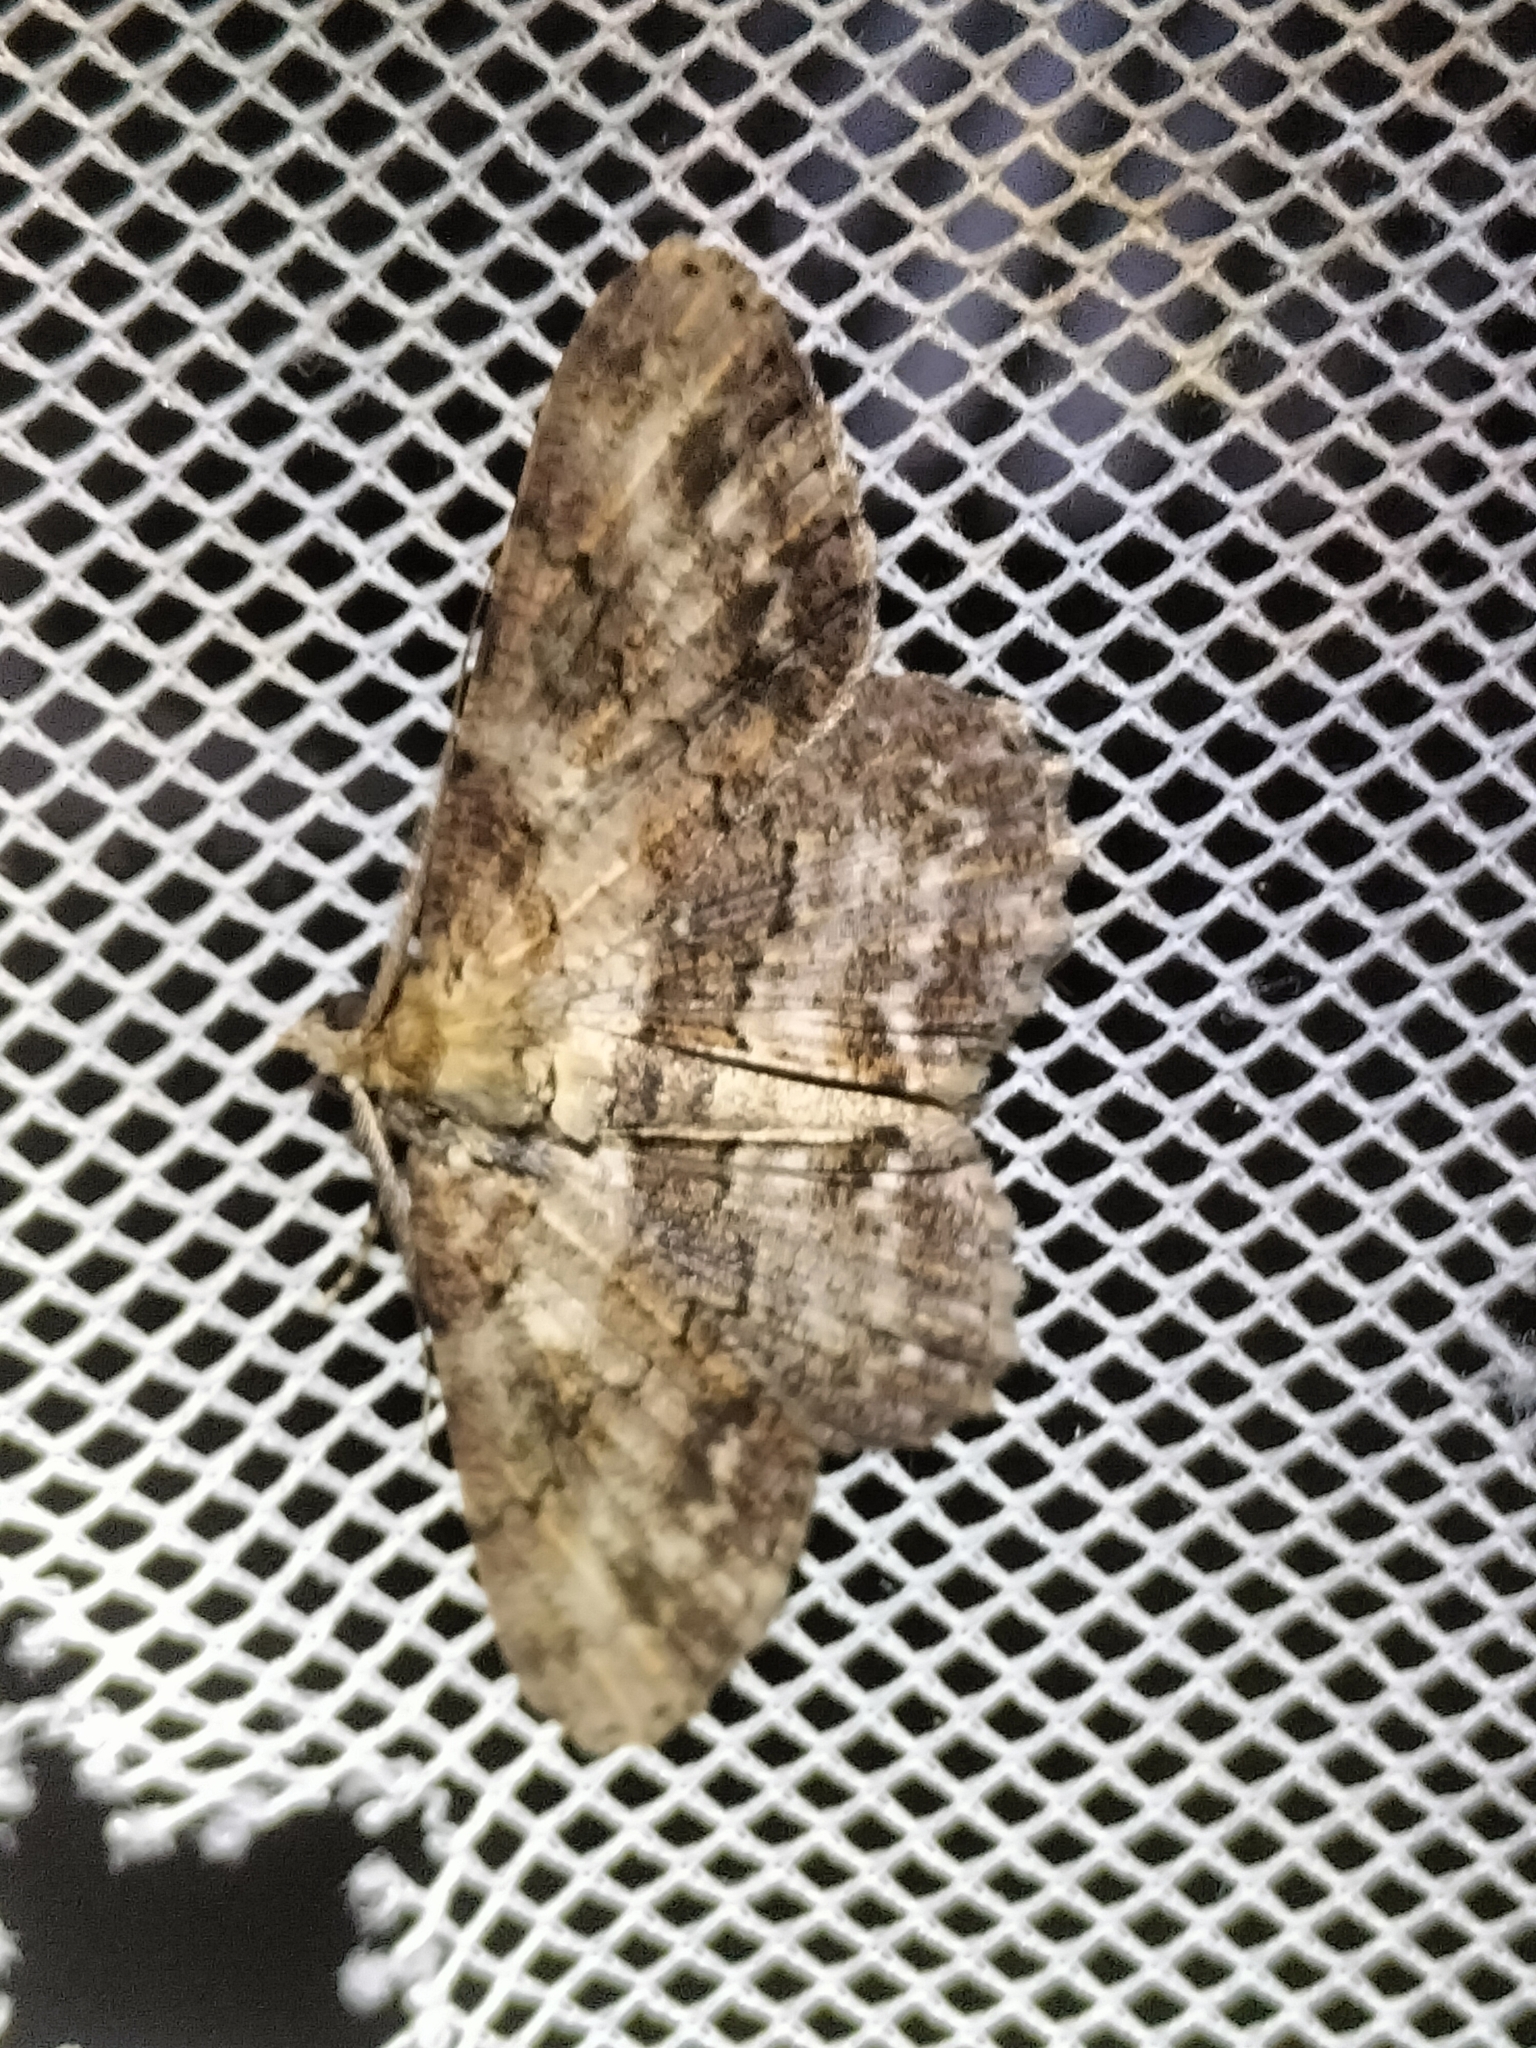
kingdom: Animalia
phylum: Arthropoda
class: Insecta
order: Lepidoptera
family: Geometridae
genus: Cleora
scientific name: Cleora repetita
